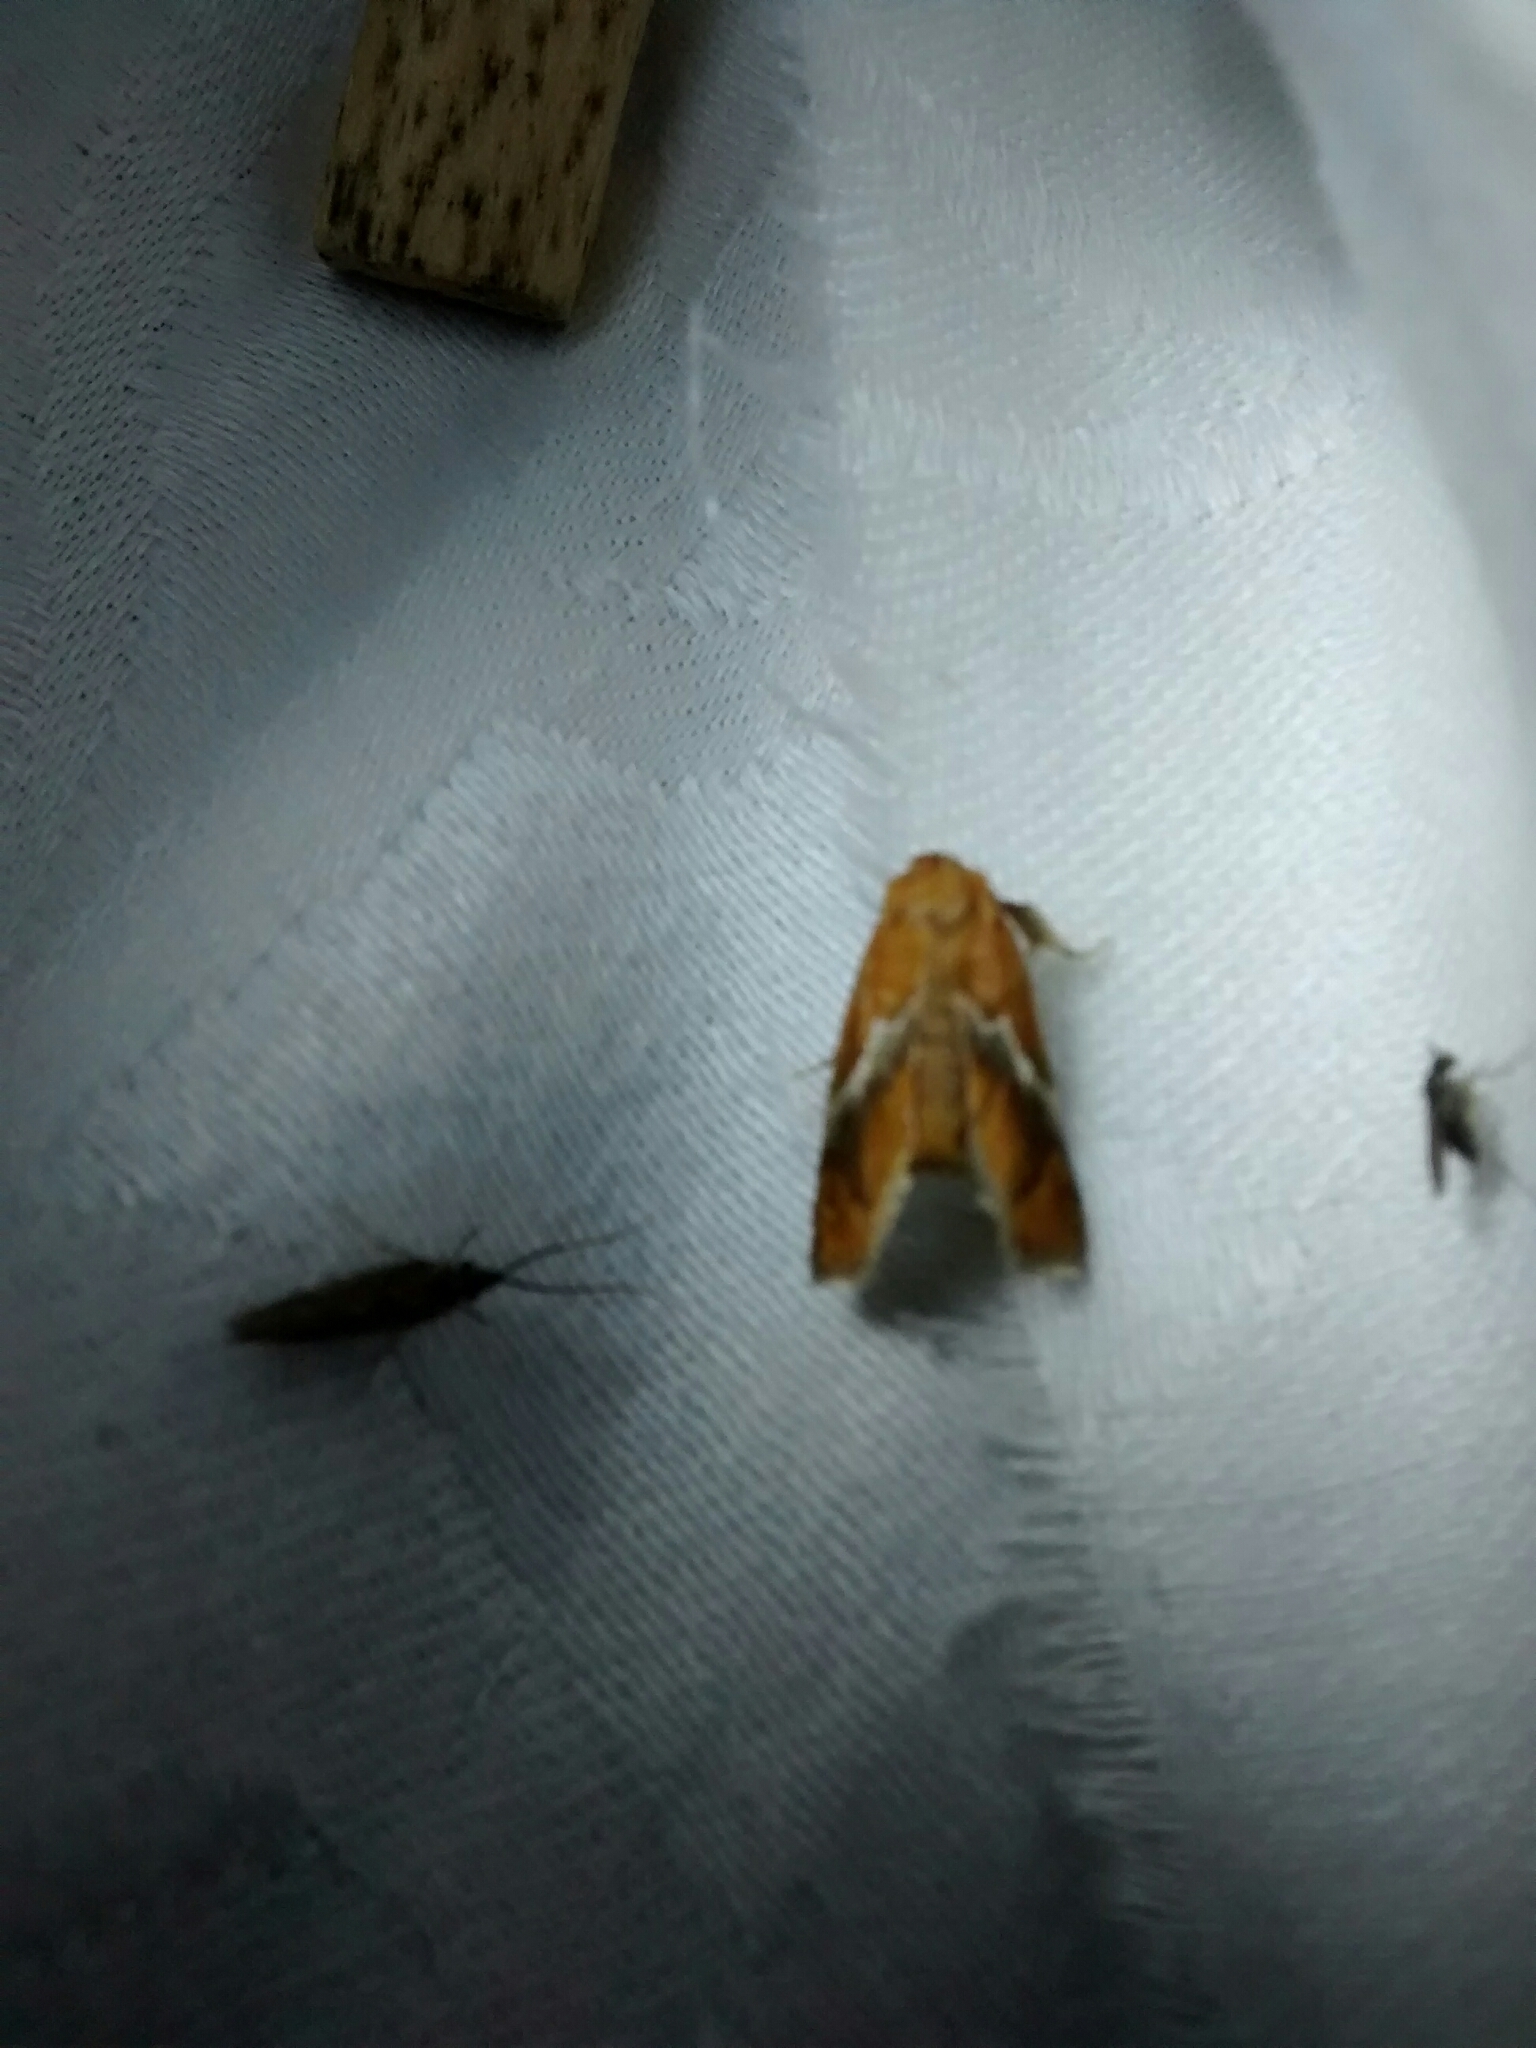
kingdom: Animalia
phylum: Arthropoda
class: Insecta
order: Lepidoptera
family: Limacodidae
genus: Lithacodes
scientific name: Lithacodes fasciola
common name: Yellow-shouldered slug moth
